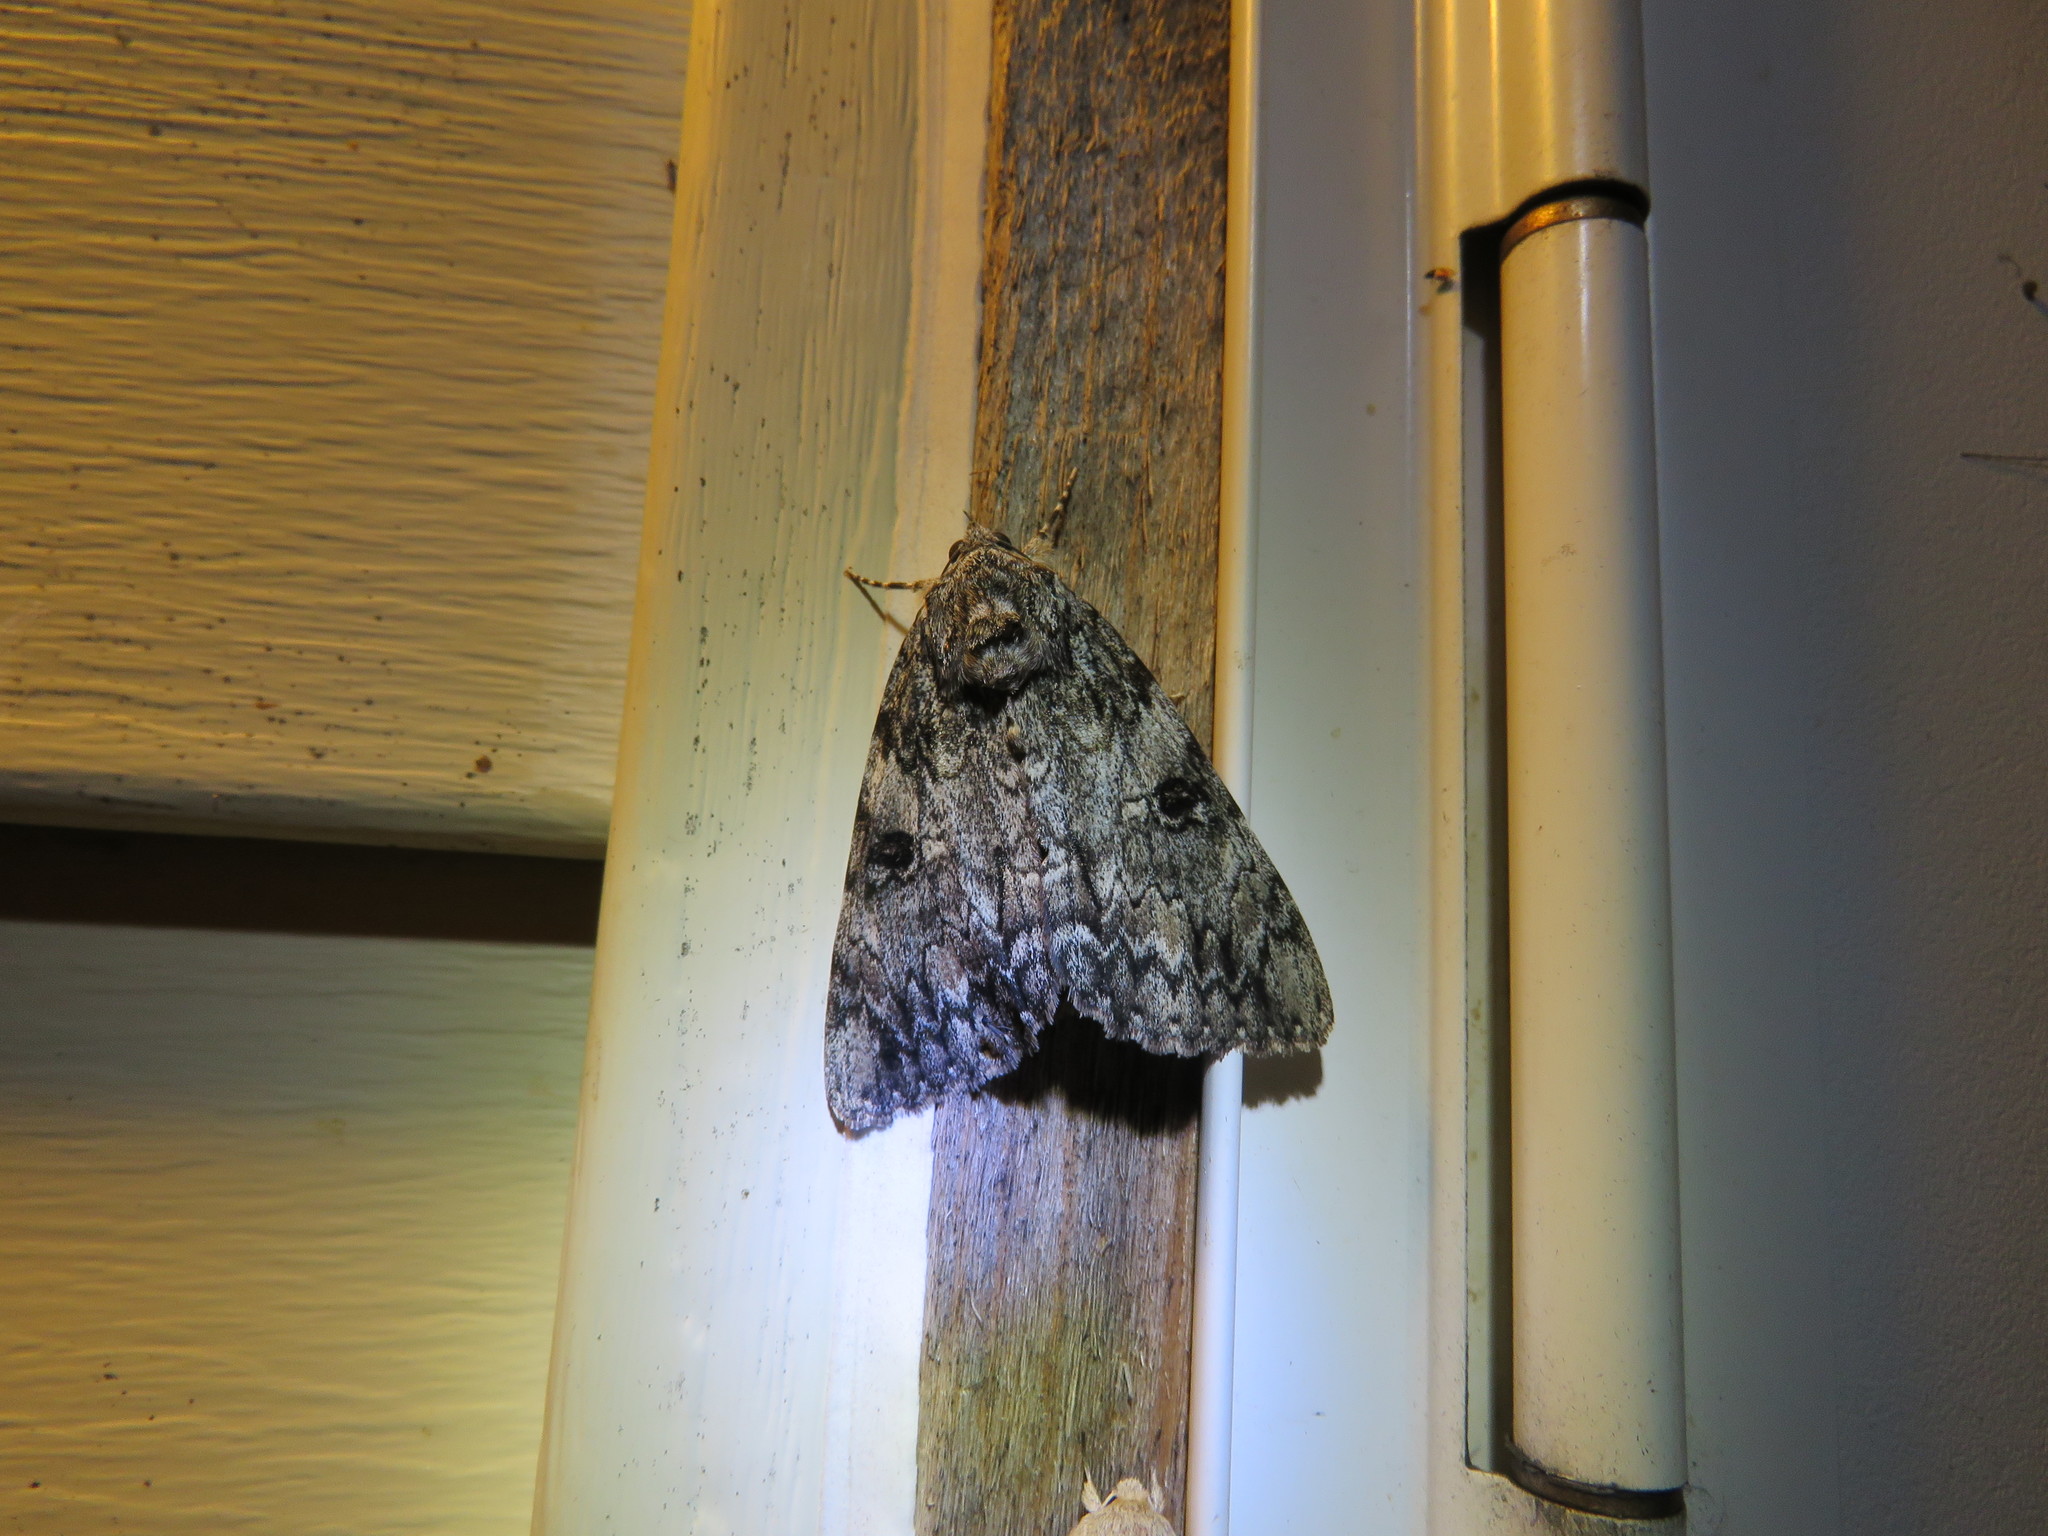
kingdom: Animalia
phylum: Arthropoda
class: Insecta
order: Lepidoptera
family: Erebidae
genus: Catocala
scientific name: Catocala palaeogama
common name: Oldwife underwing
